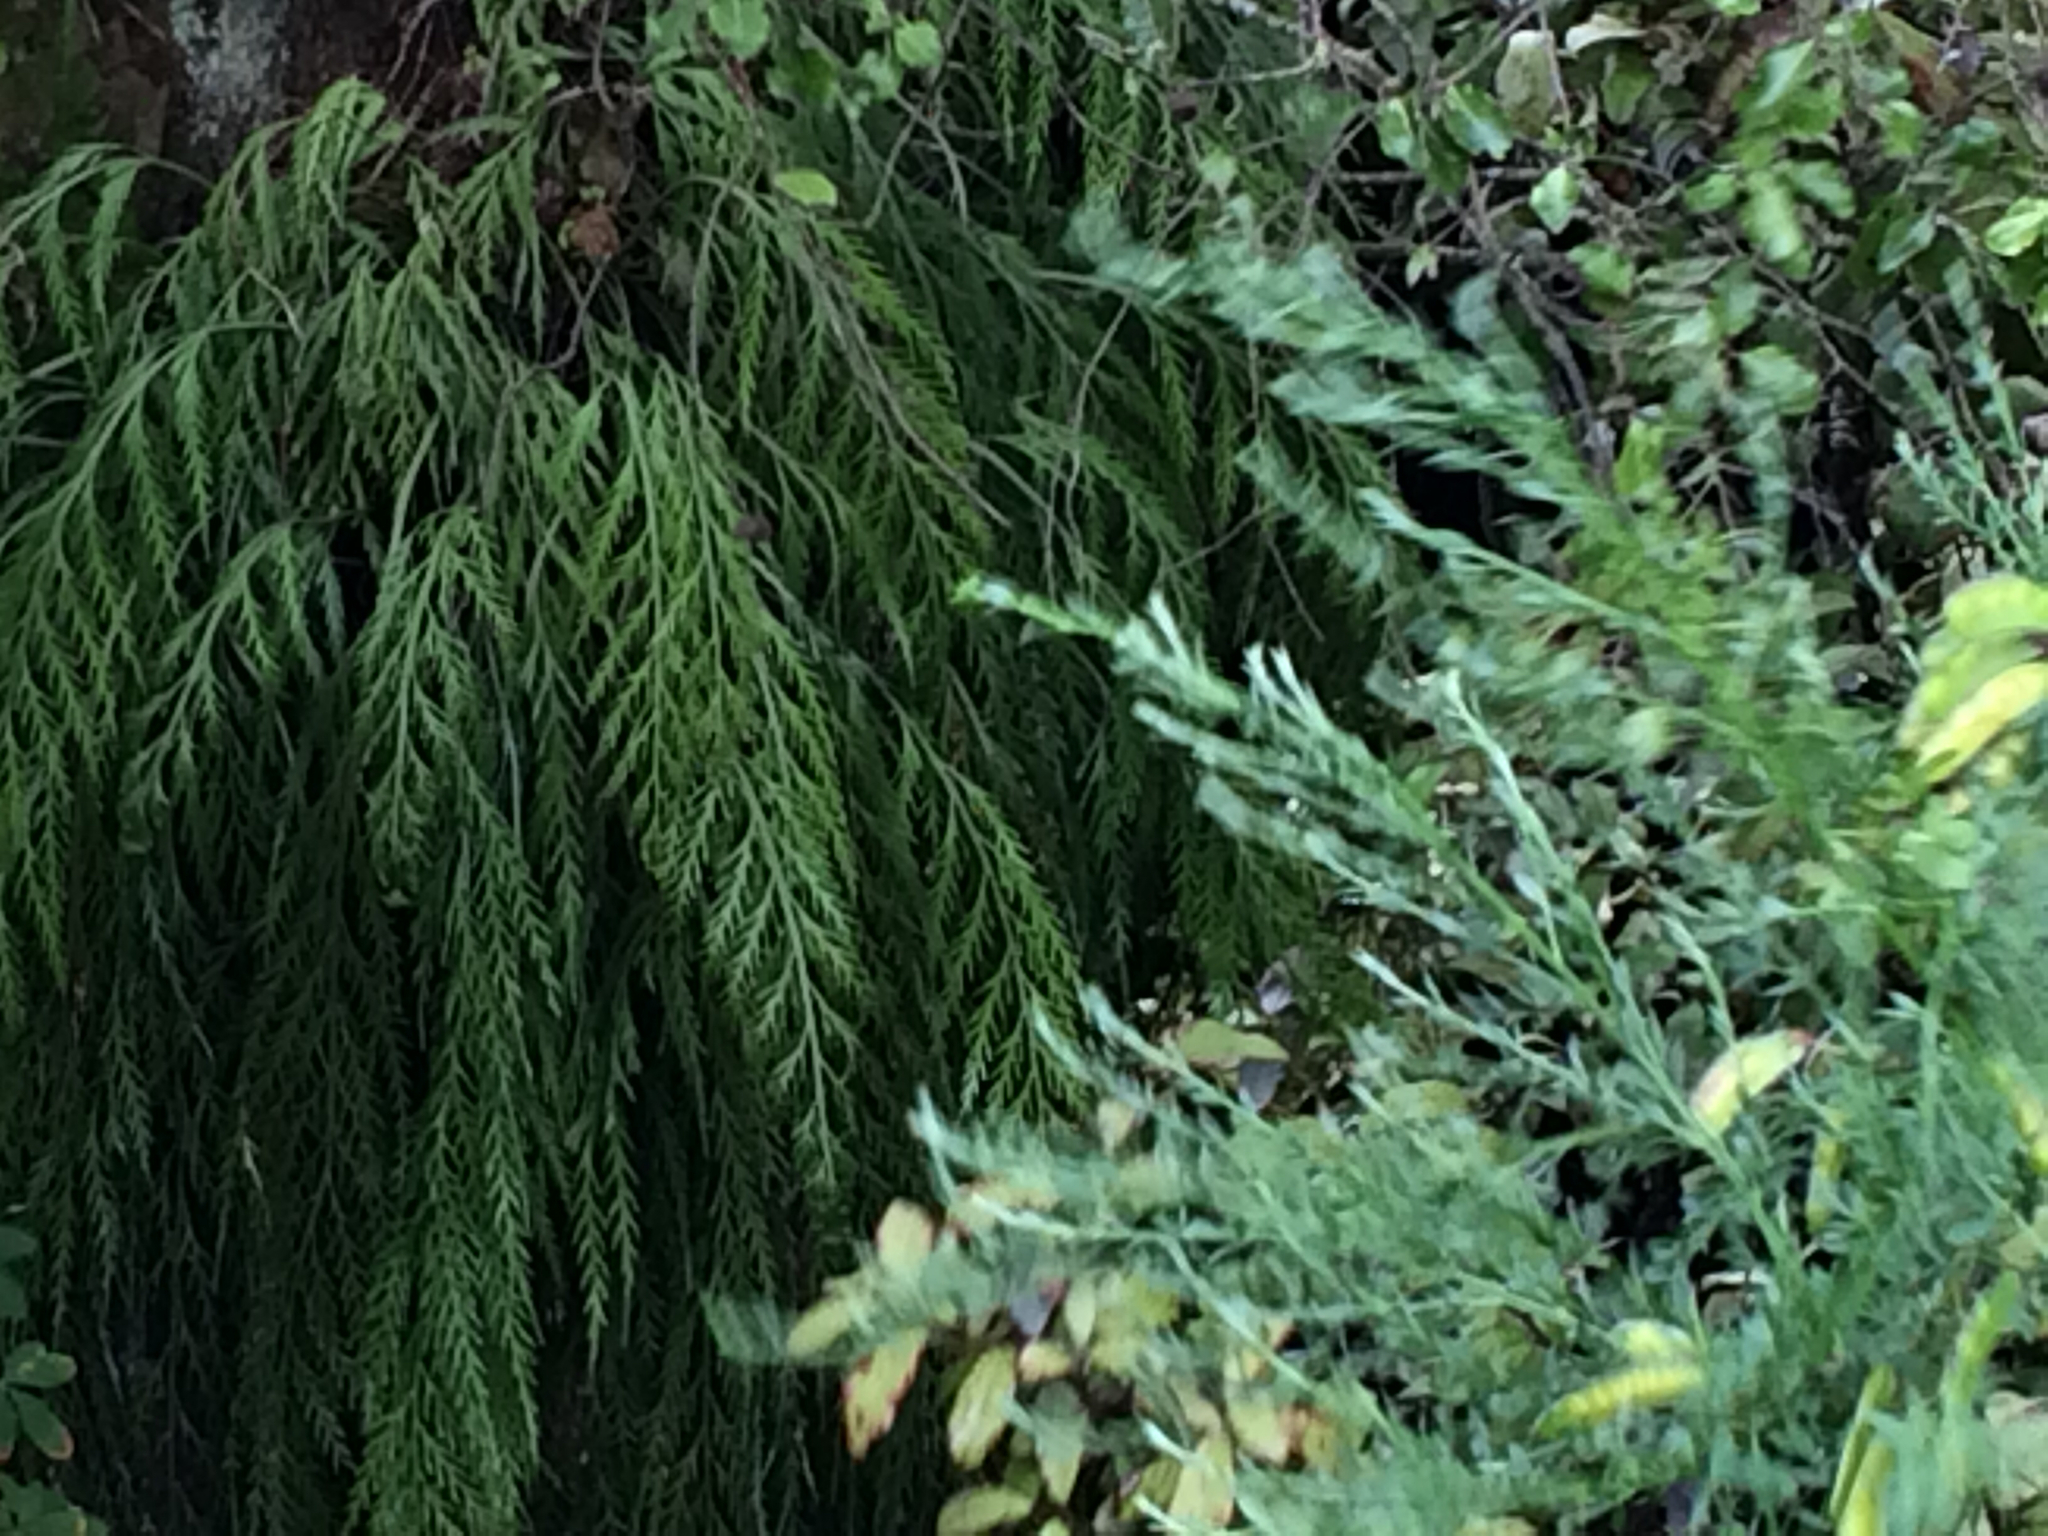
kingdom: Plantae
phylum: Tracheophyta
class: Polypodiopsida
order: Polypodiales
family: Aspleniaceae
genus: Asplenium
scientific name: Asplenium flaccidum
